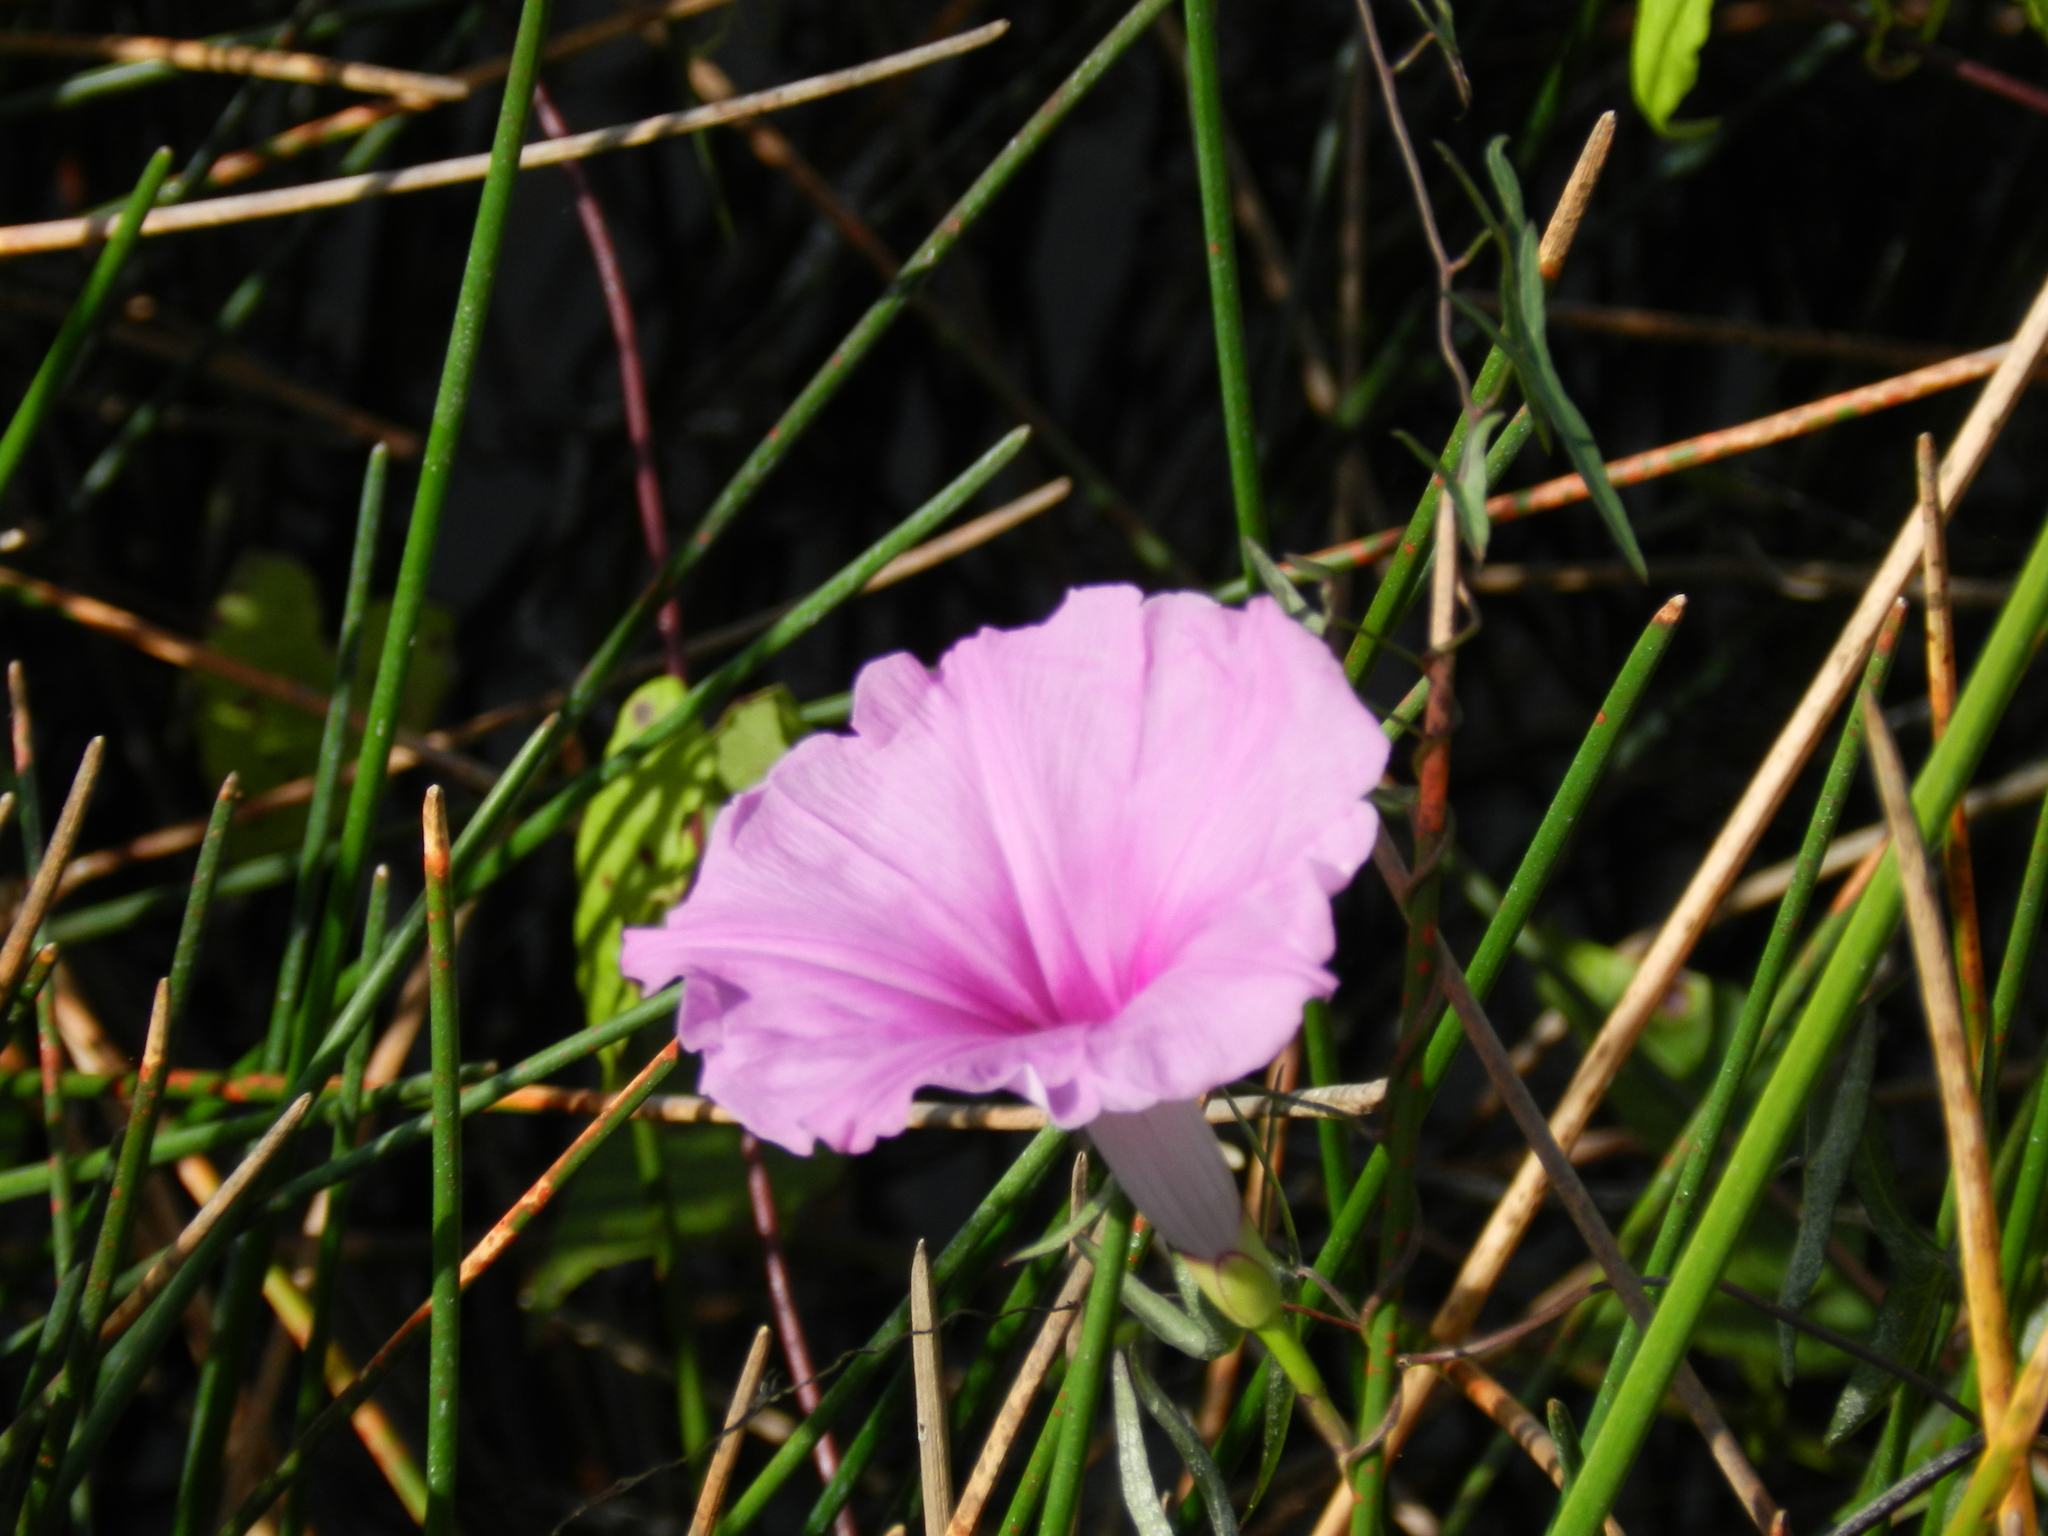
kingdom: Plantae
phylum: Tracheophyta
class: Magnoliopsida
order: Solanales
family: Convolvulaceae
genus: Ipomoea
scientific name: Ipomoea sagittata
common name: Saltmarsh morning glory
